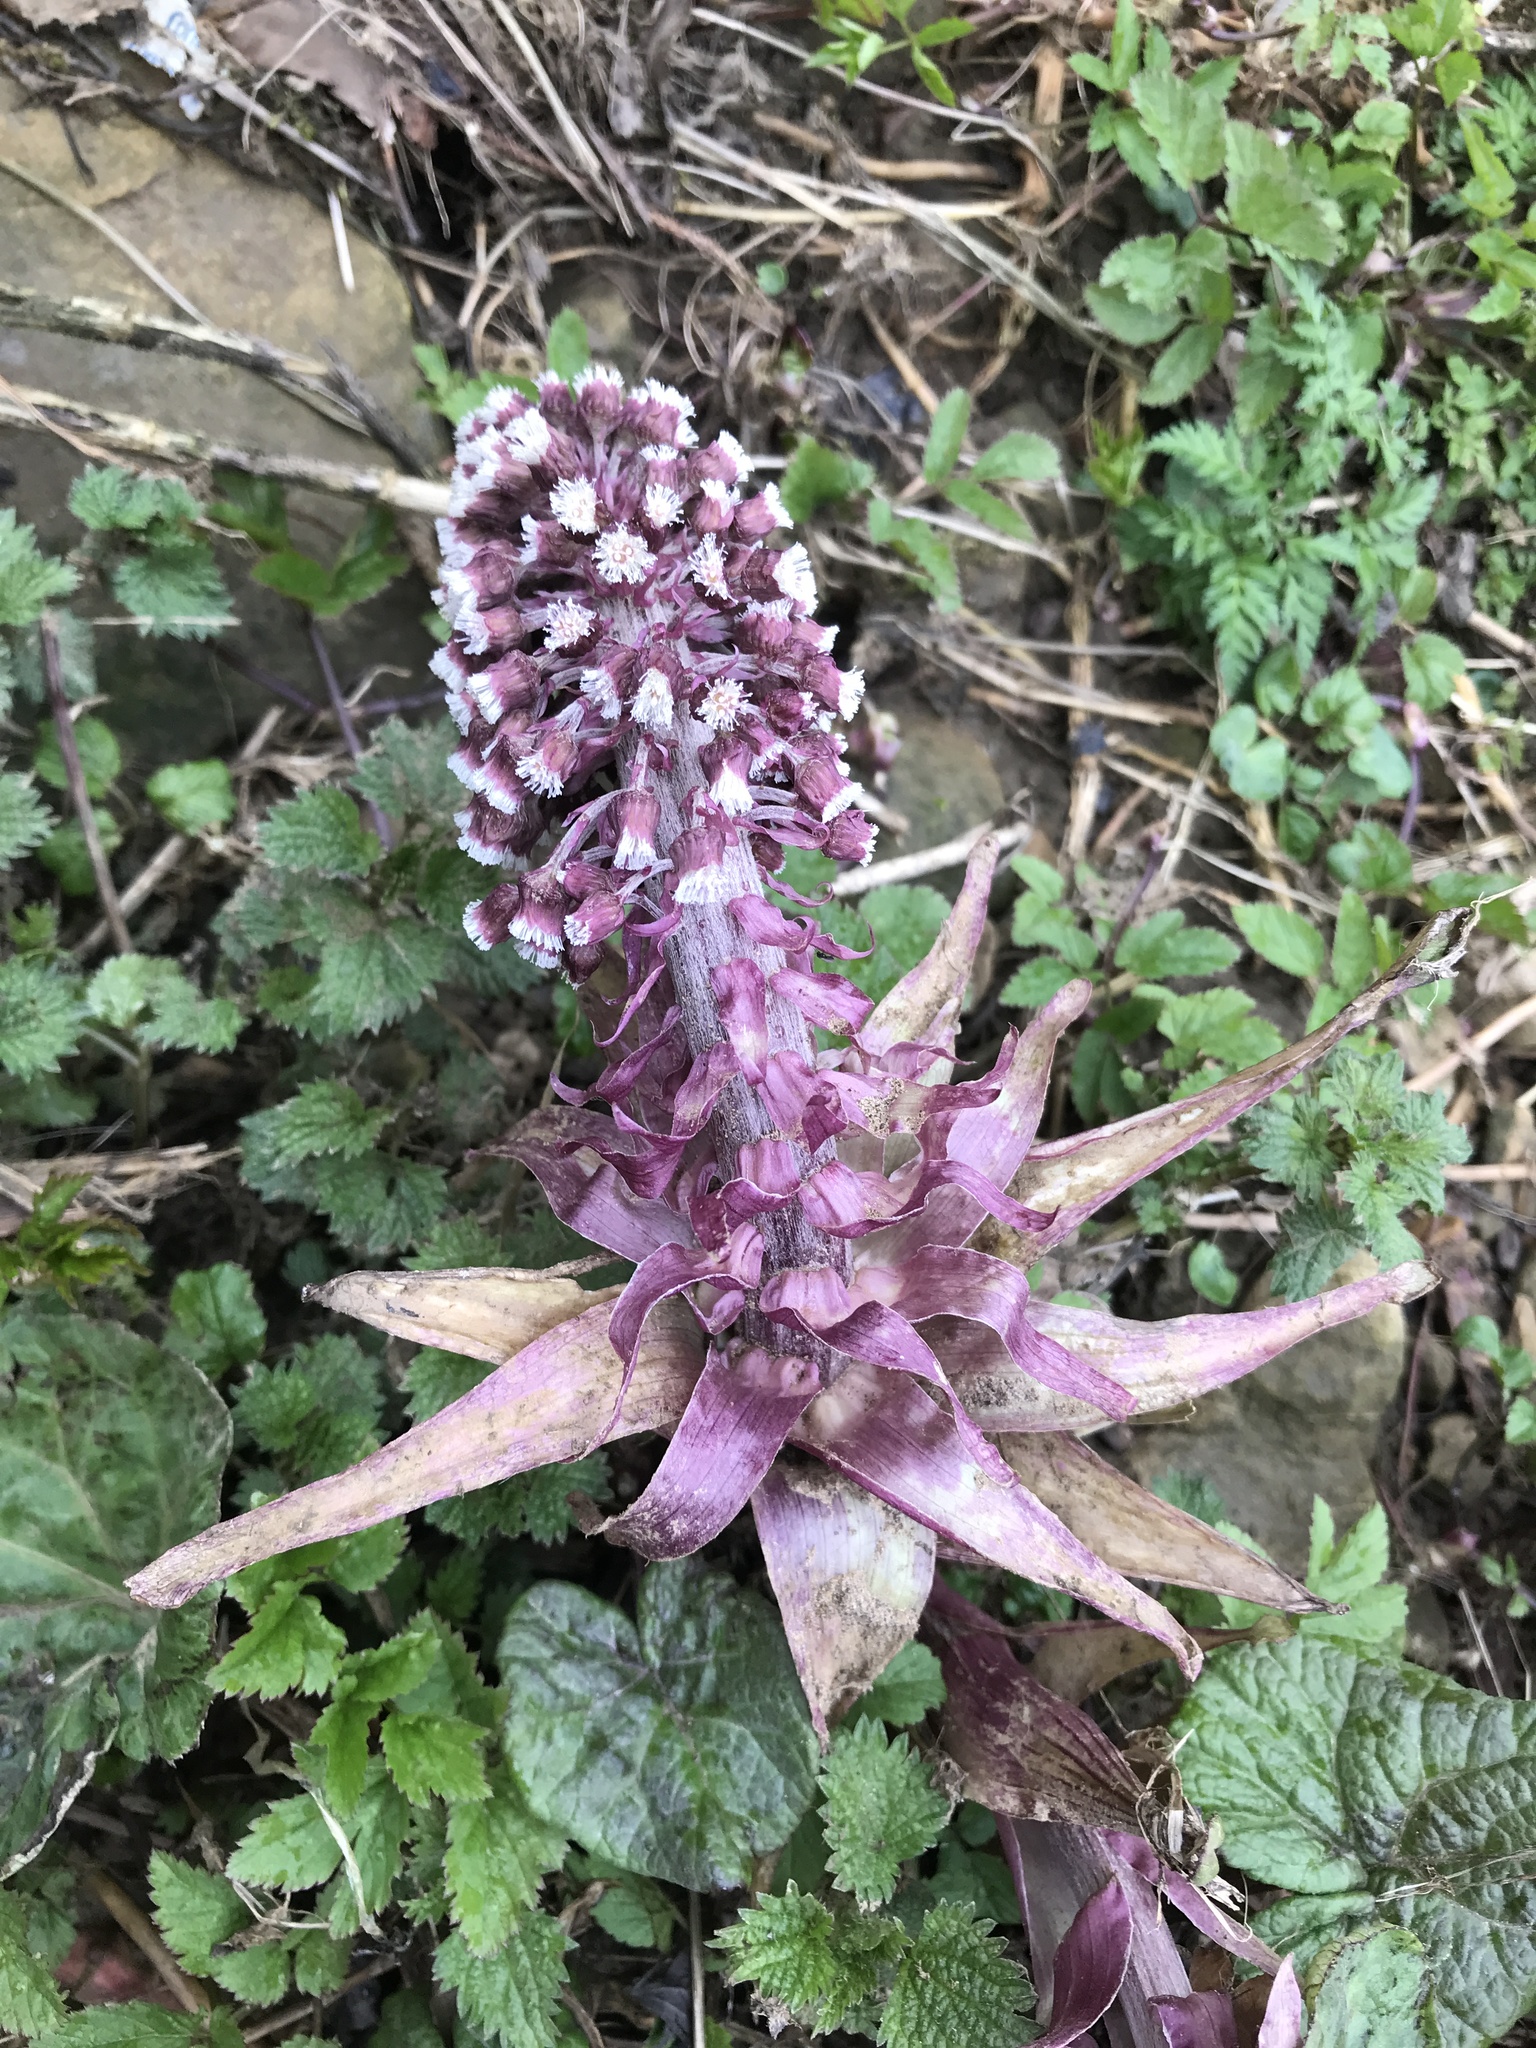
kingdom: Plantae
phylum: Tracheophyta
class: Magnoliopsida
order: Asterales
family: Asteraceae
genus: Petasites
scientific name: Petasites hybridus
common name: Butterbur
